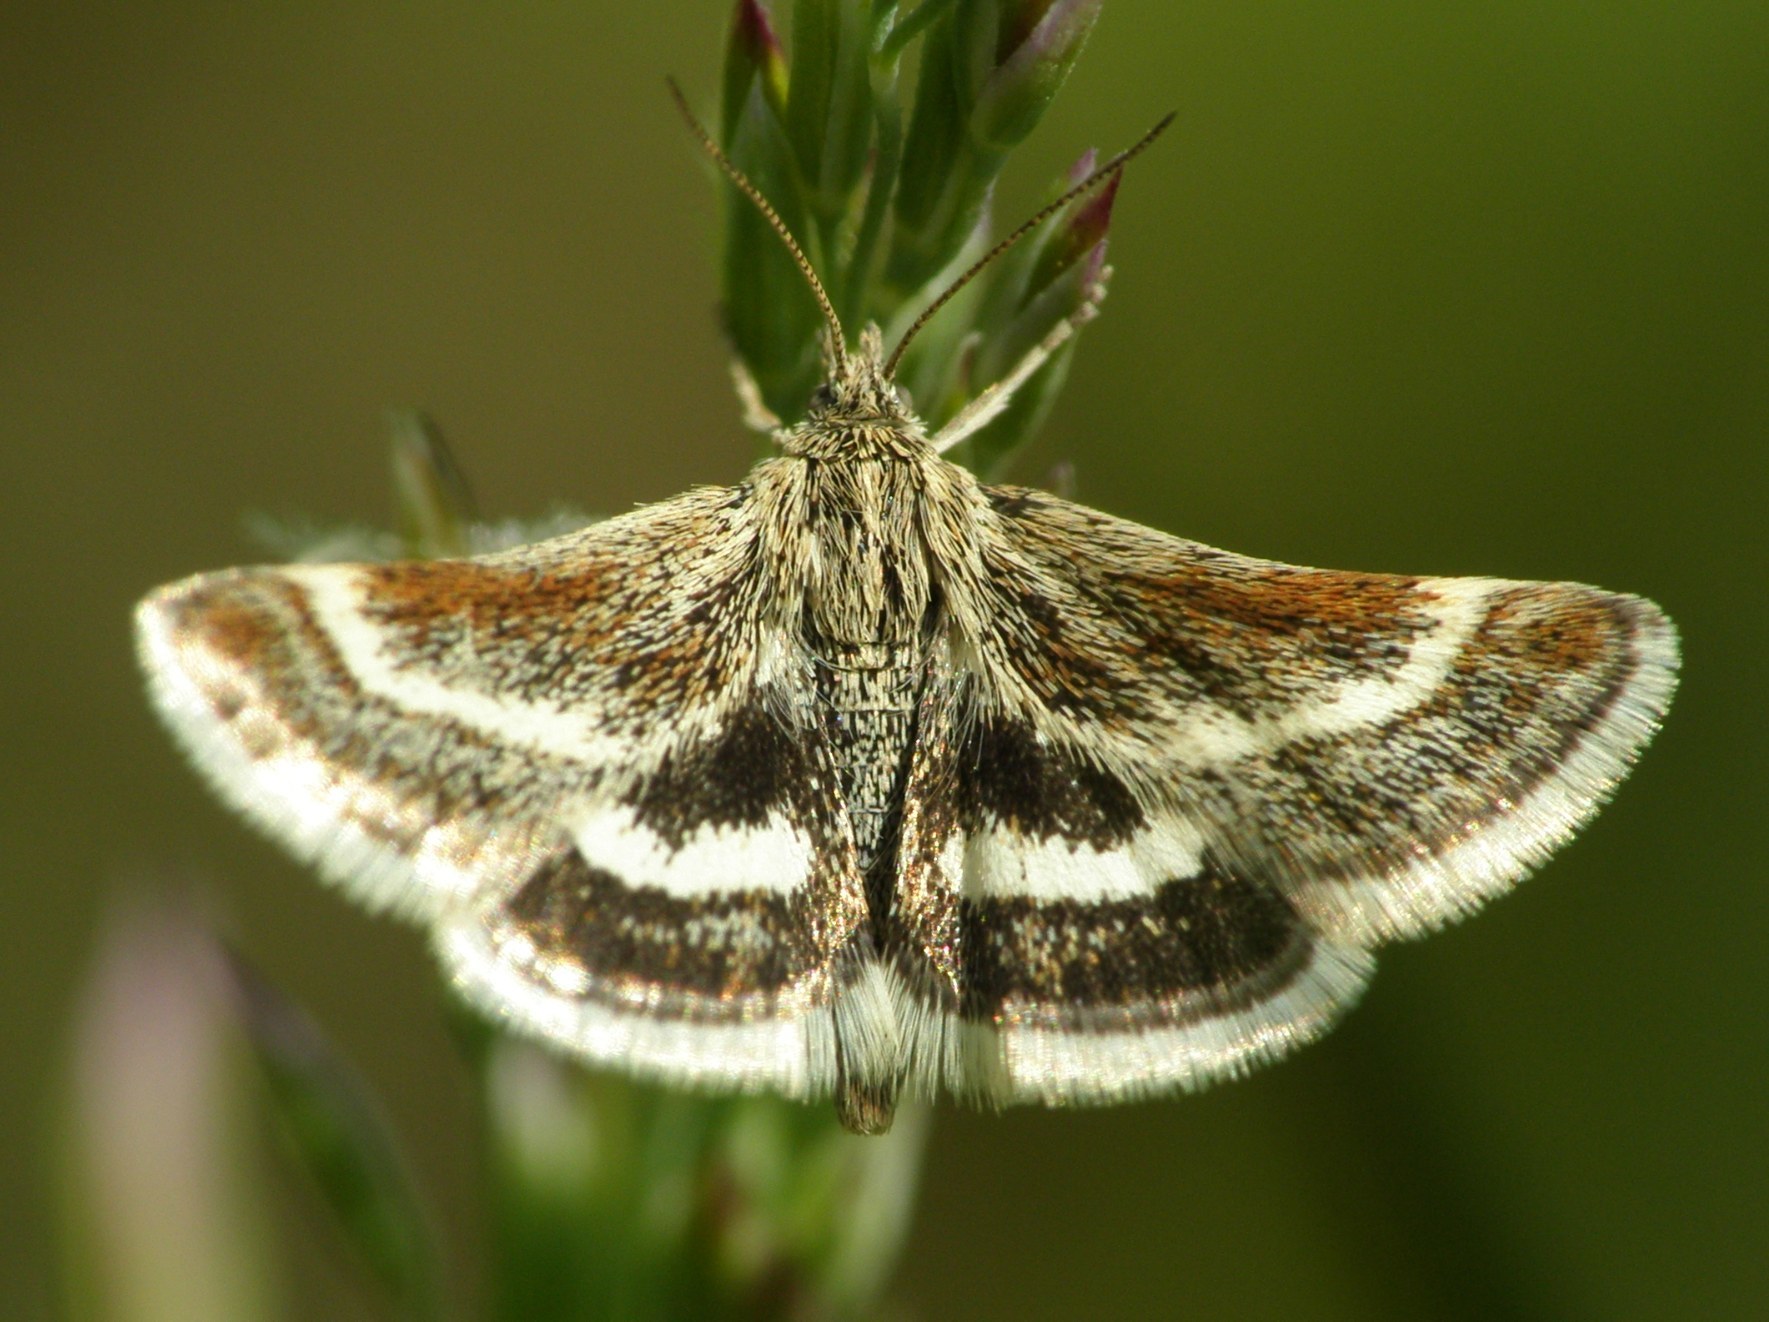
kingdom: Animalia
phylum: Arthropoda
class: Insecta
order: Lepidoptera
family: Crambidae
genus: Atralata
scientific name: Atralata albofascialis
